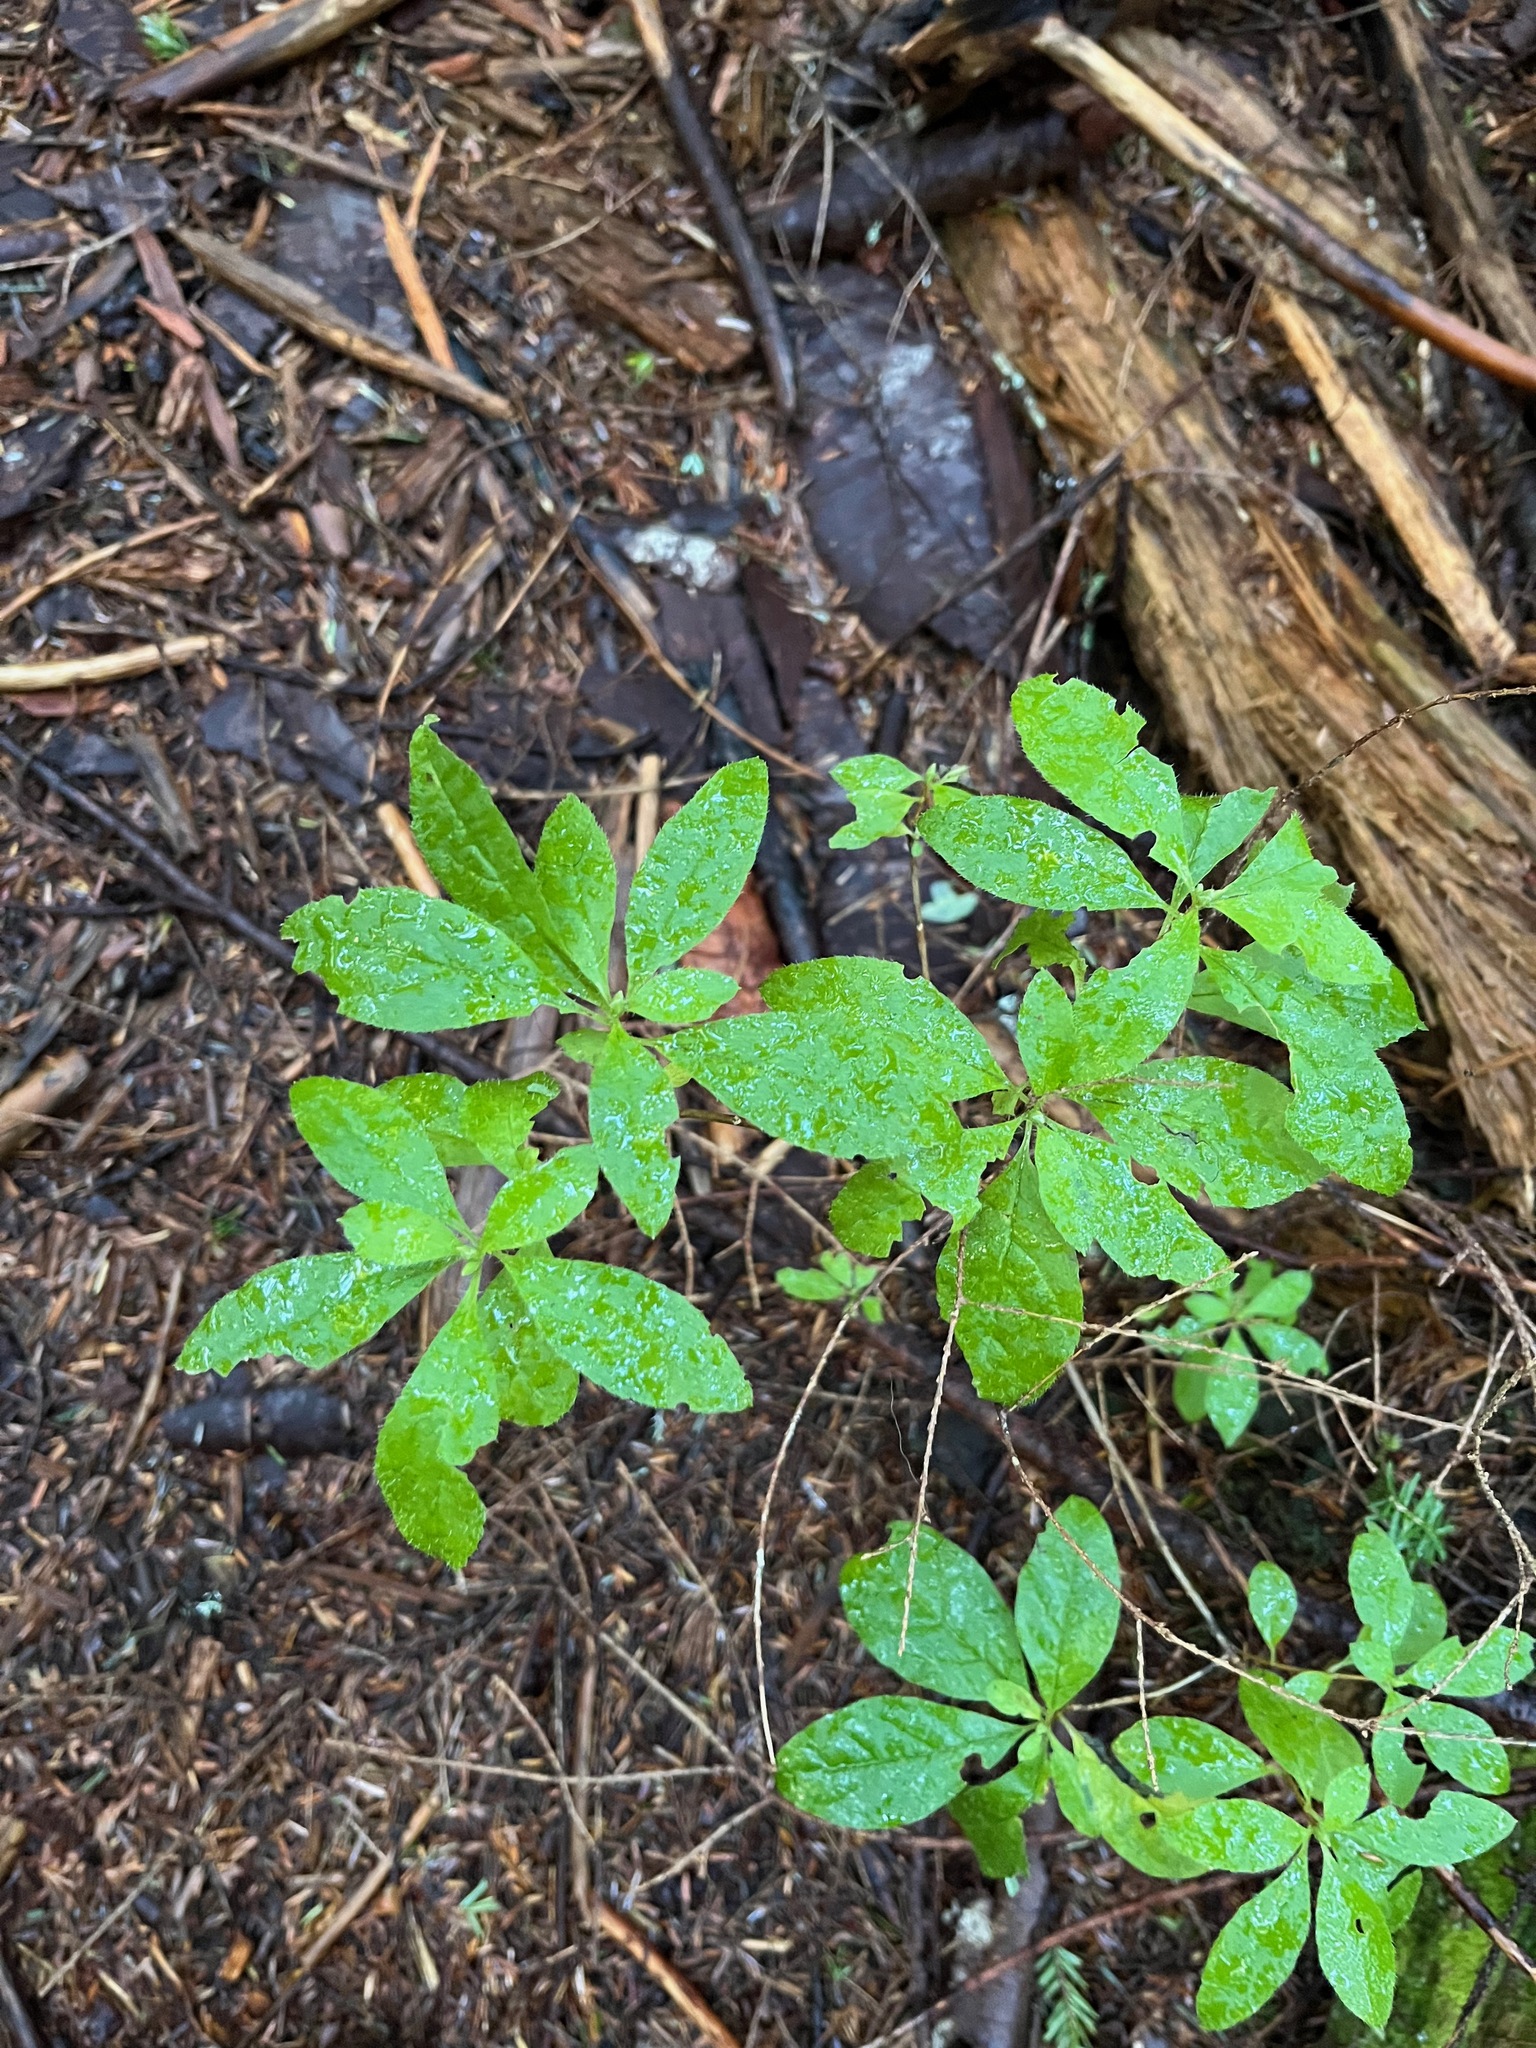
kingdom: Plantae
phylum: Tracheophyta
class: Magnoliopsida
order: Ericales
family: Ericaceae
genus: Rhododendron
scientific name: Rhododendron menziesii
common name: Pacific menziesia
